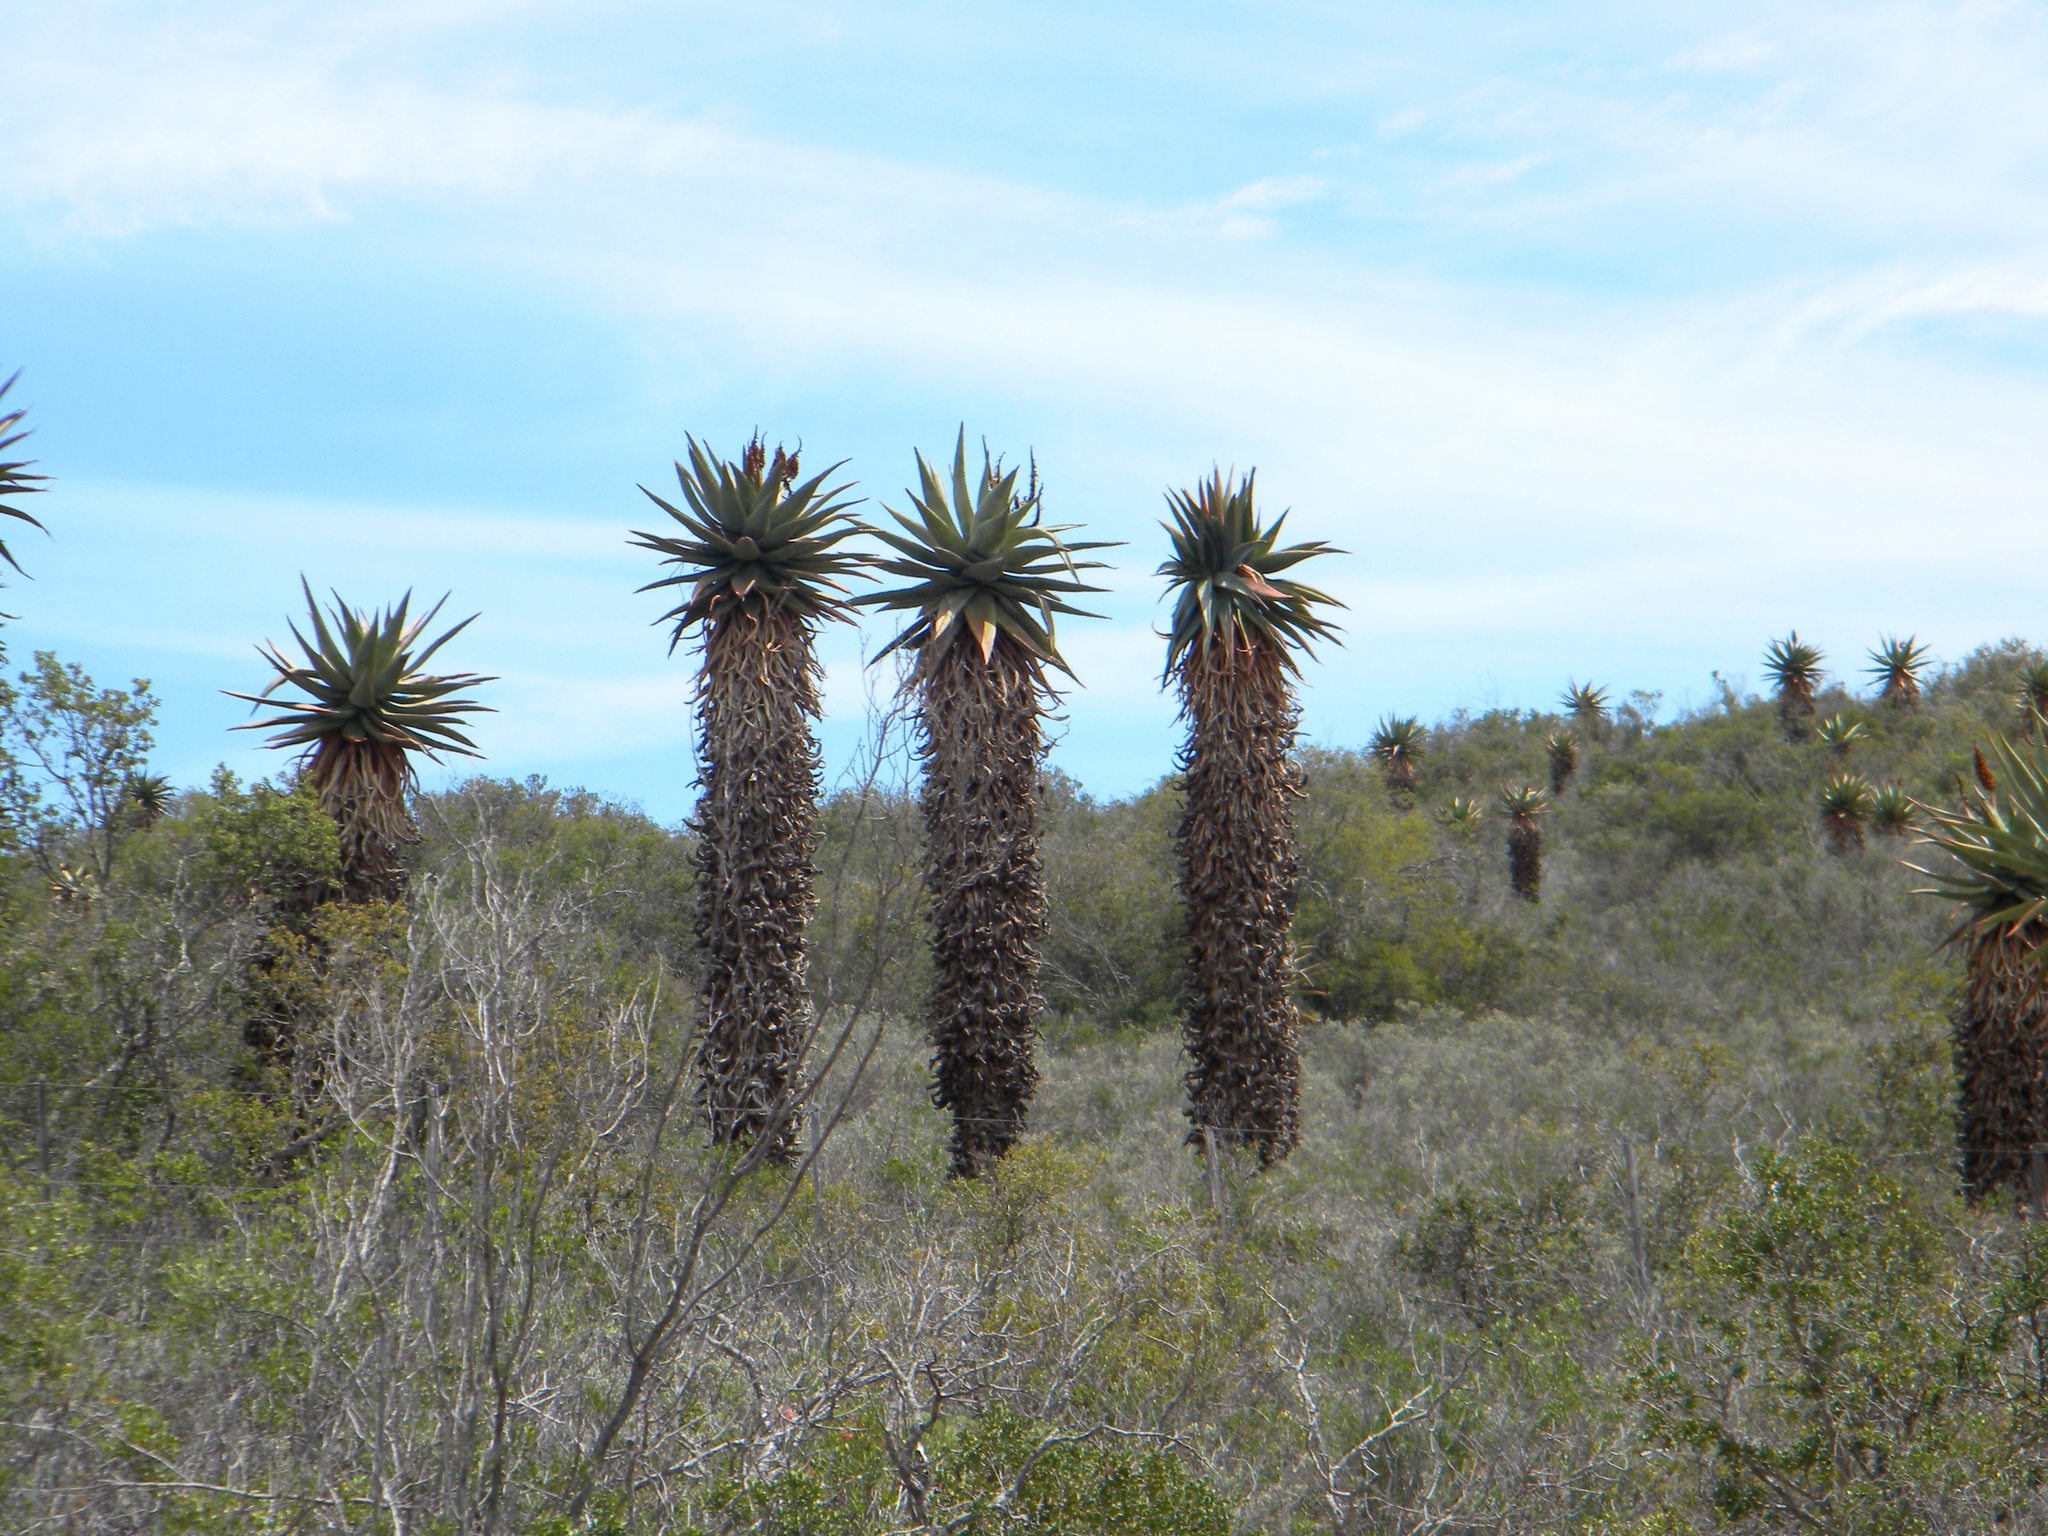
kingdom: Plantae
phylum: Tracheophyta
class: Liliopsida
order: Asparagales
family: Asphodelaceae
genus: Aloe
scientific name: Aloe ferox
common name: Bitter aloe
